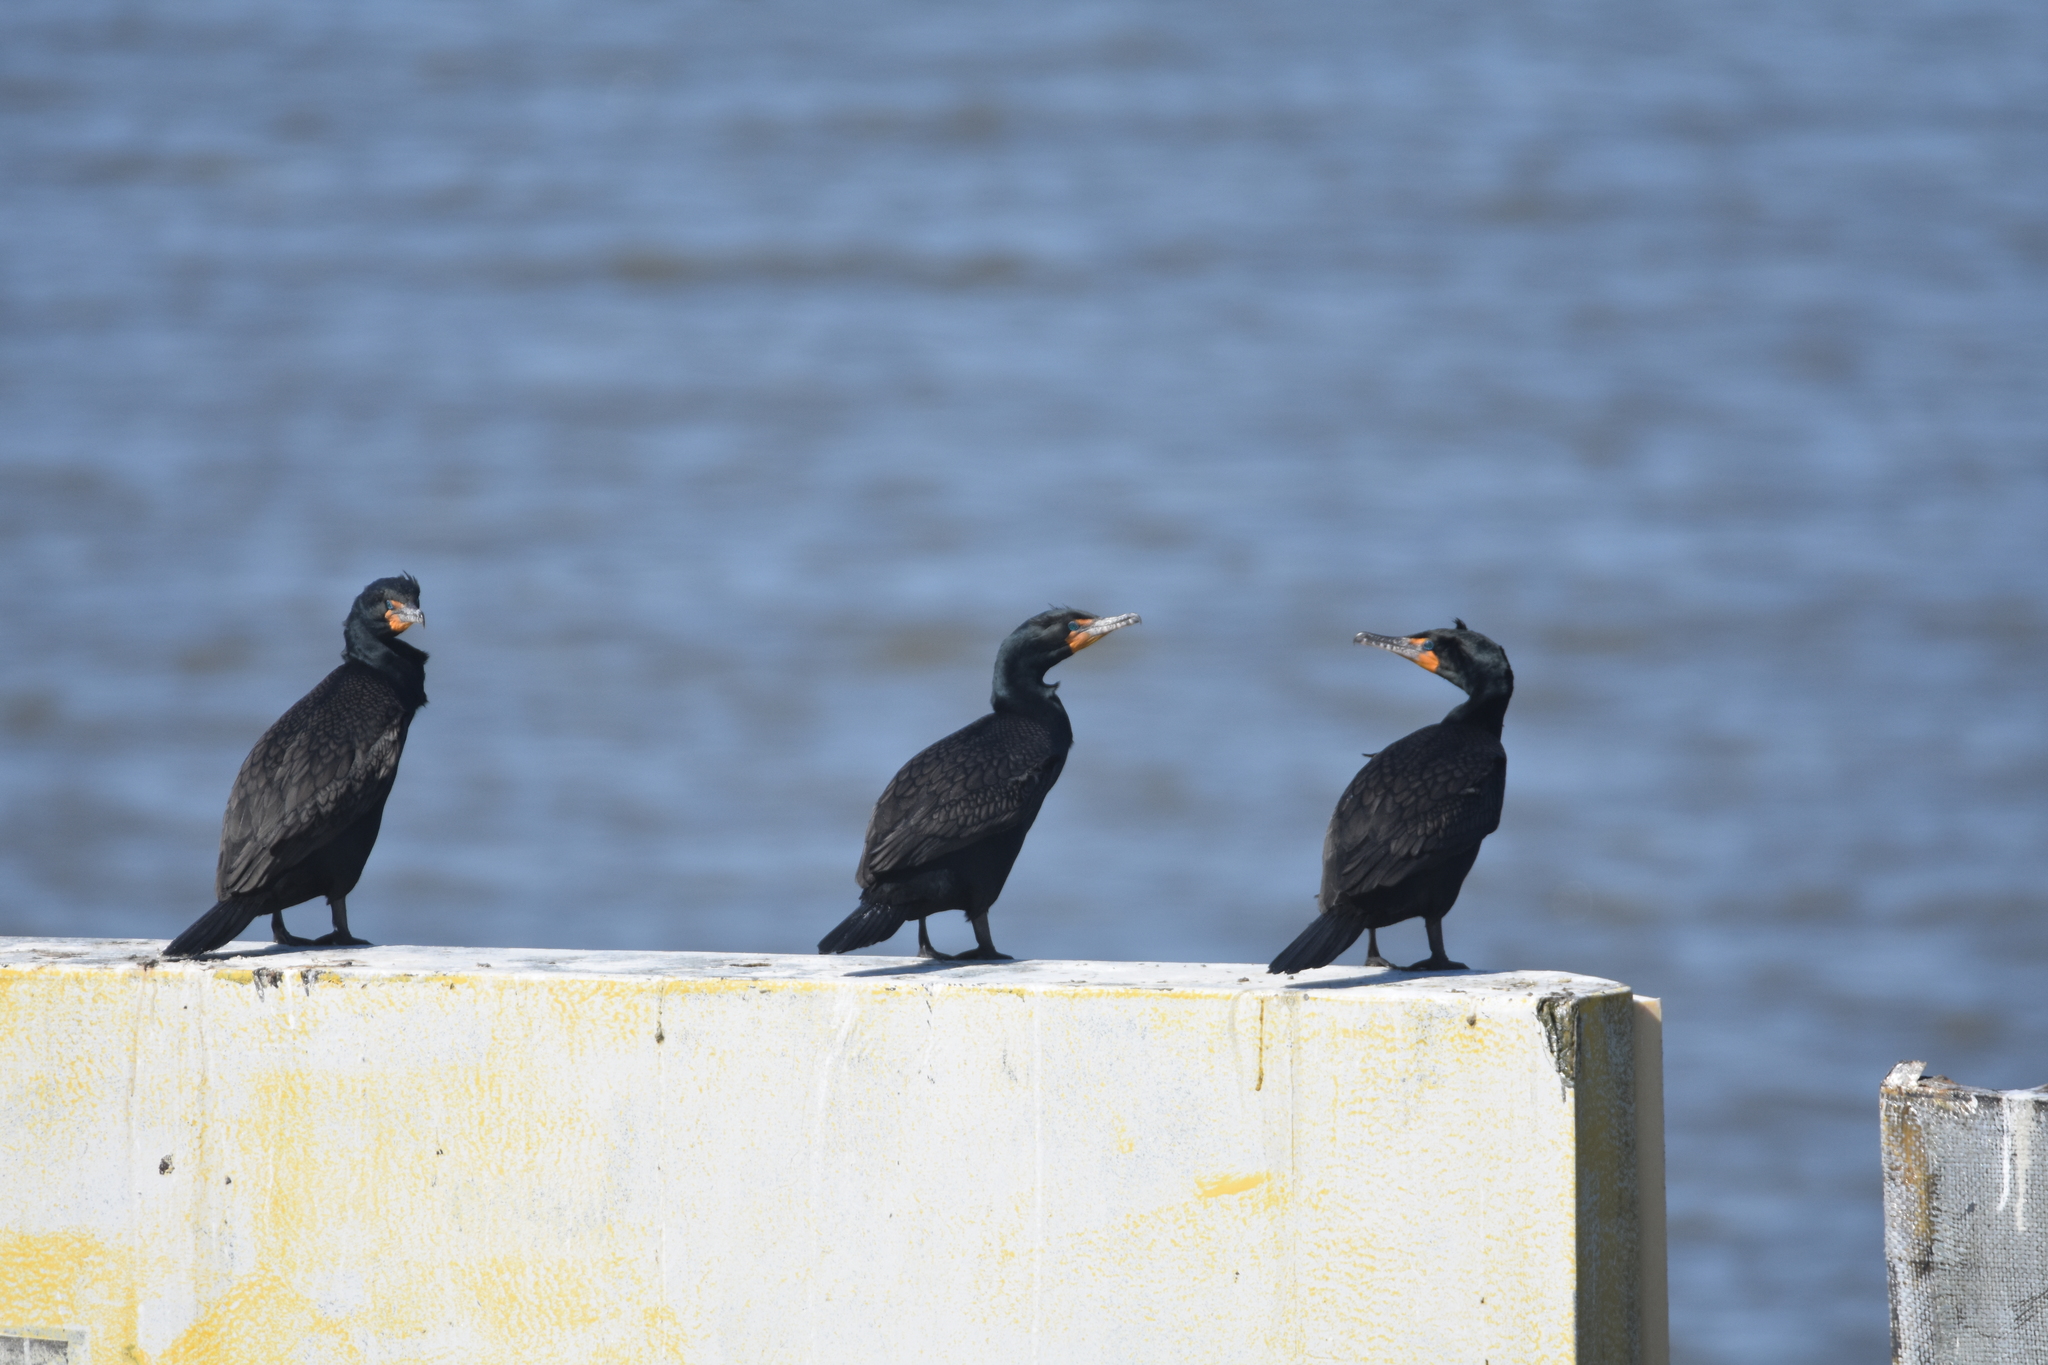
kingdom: Animalia
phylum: Chordata
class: Aves
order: Suliformes
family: Phalacrocoracidae
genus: Phalacrocorax
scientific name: Phalacrocorax auritus
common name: Double-crested cormorant
